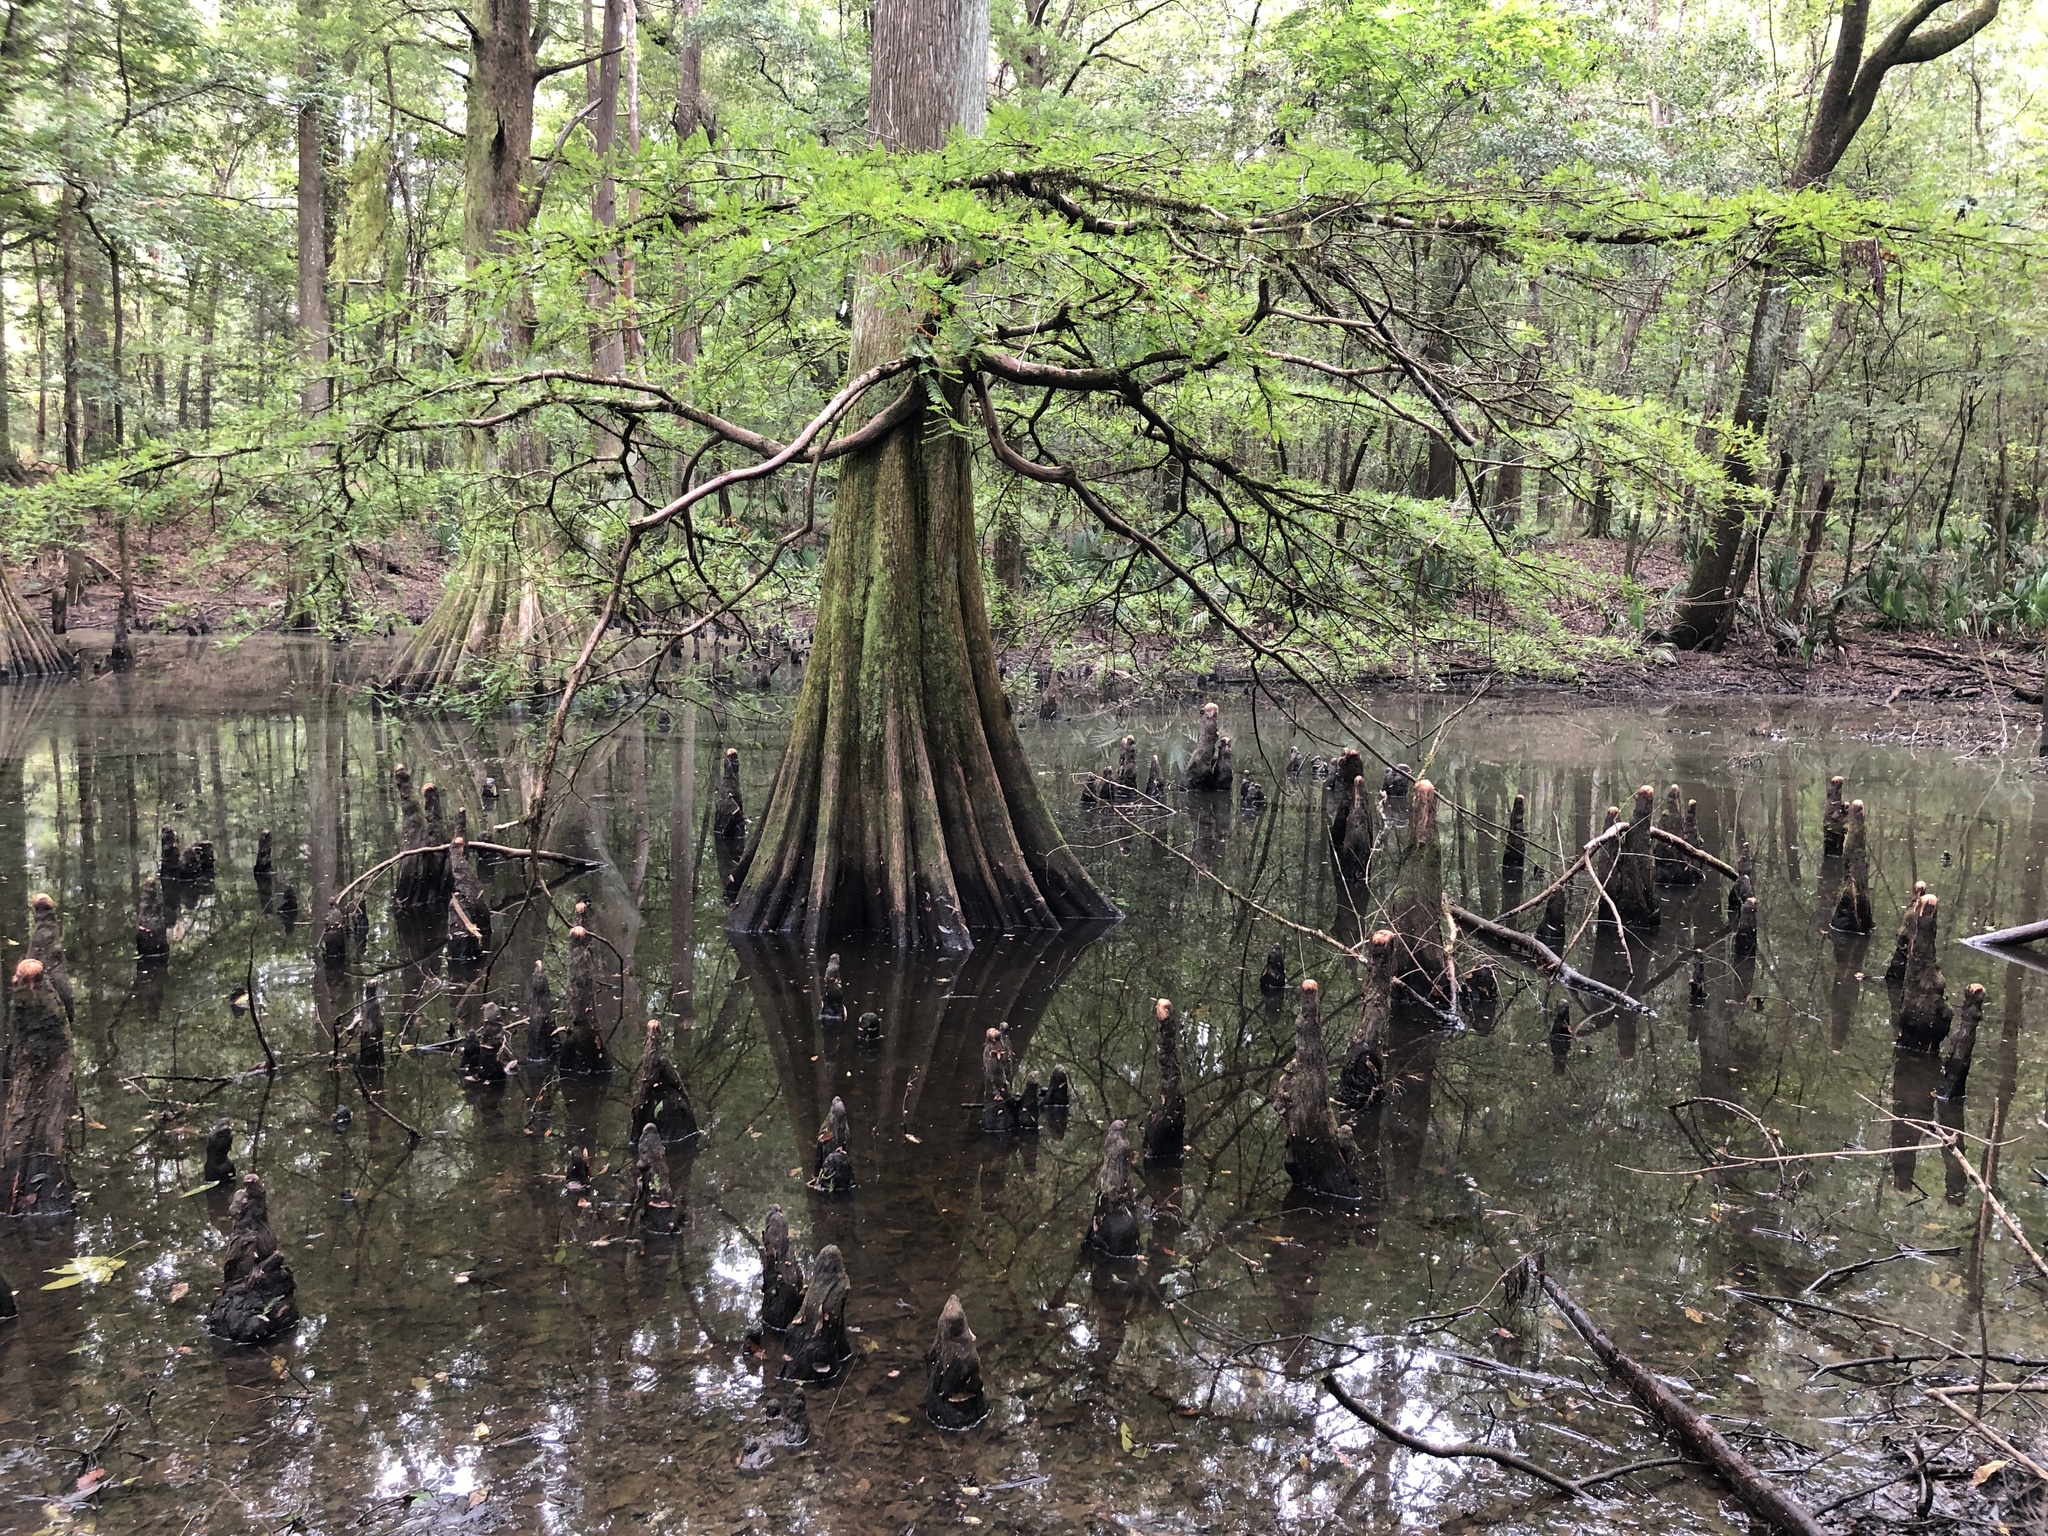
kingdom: Plantae
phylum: Tracheophyta
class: Pinopsida
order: Pinales
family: Cupressaceae
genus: Taxodium
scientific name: Taxodium distichum
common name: Bald cypress
